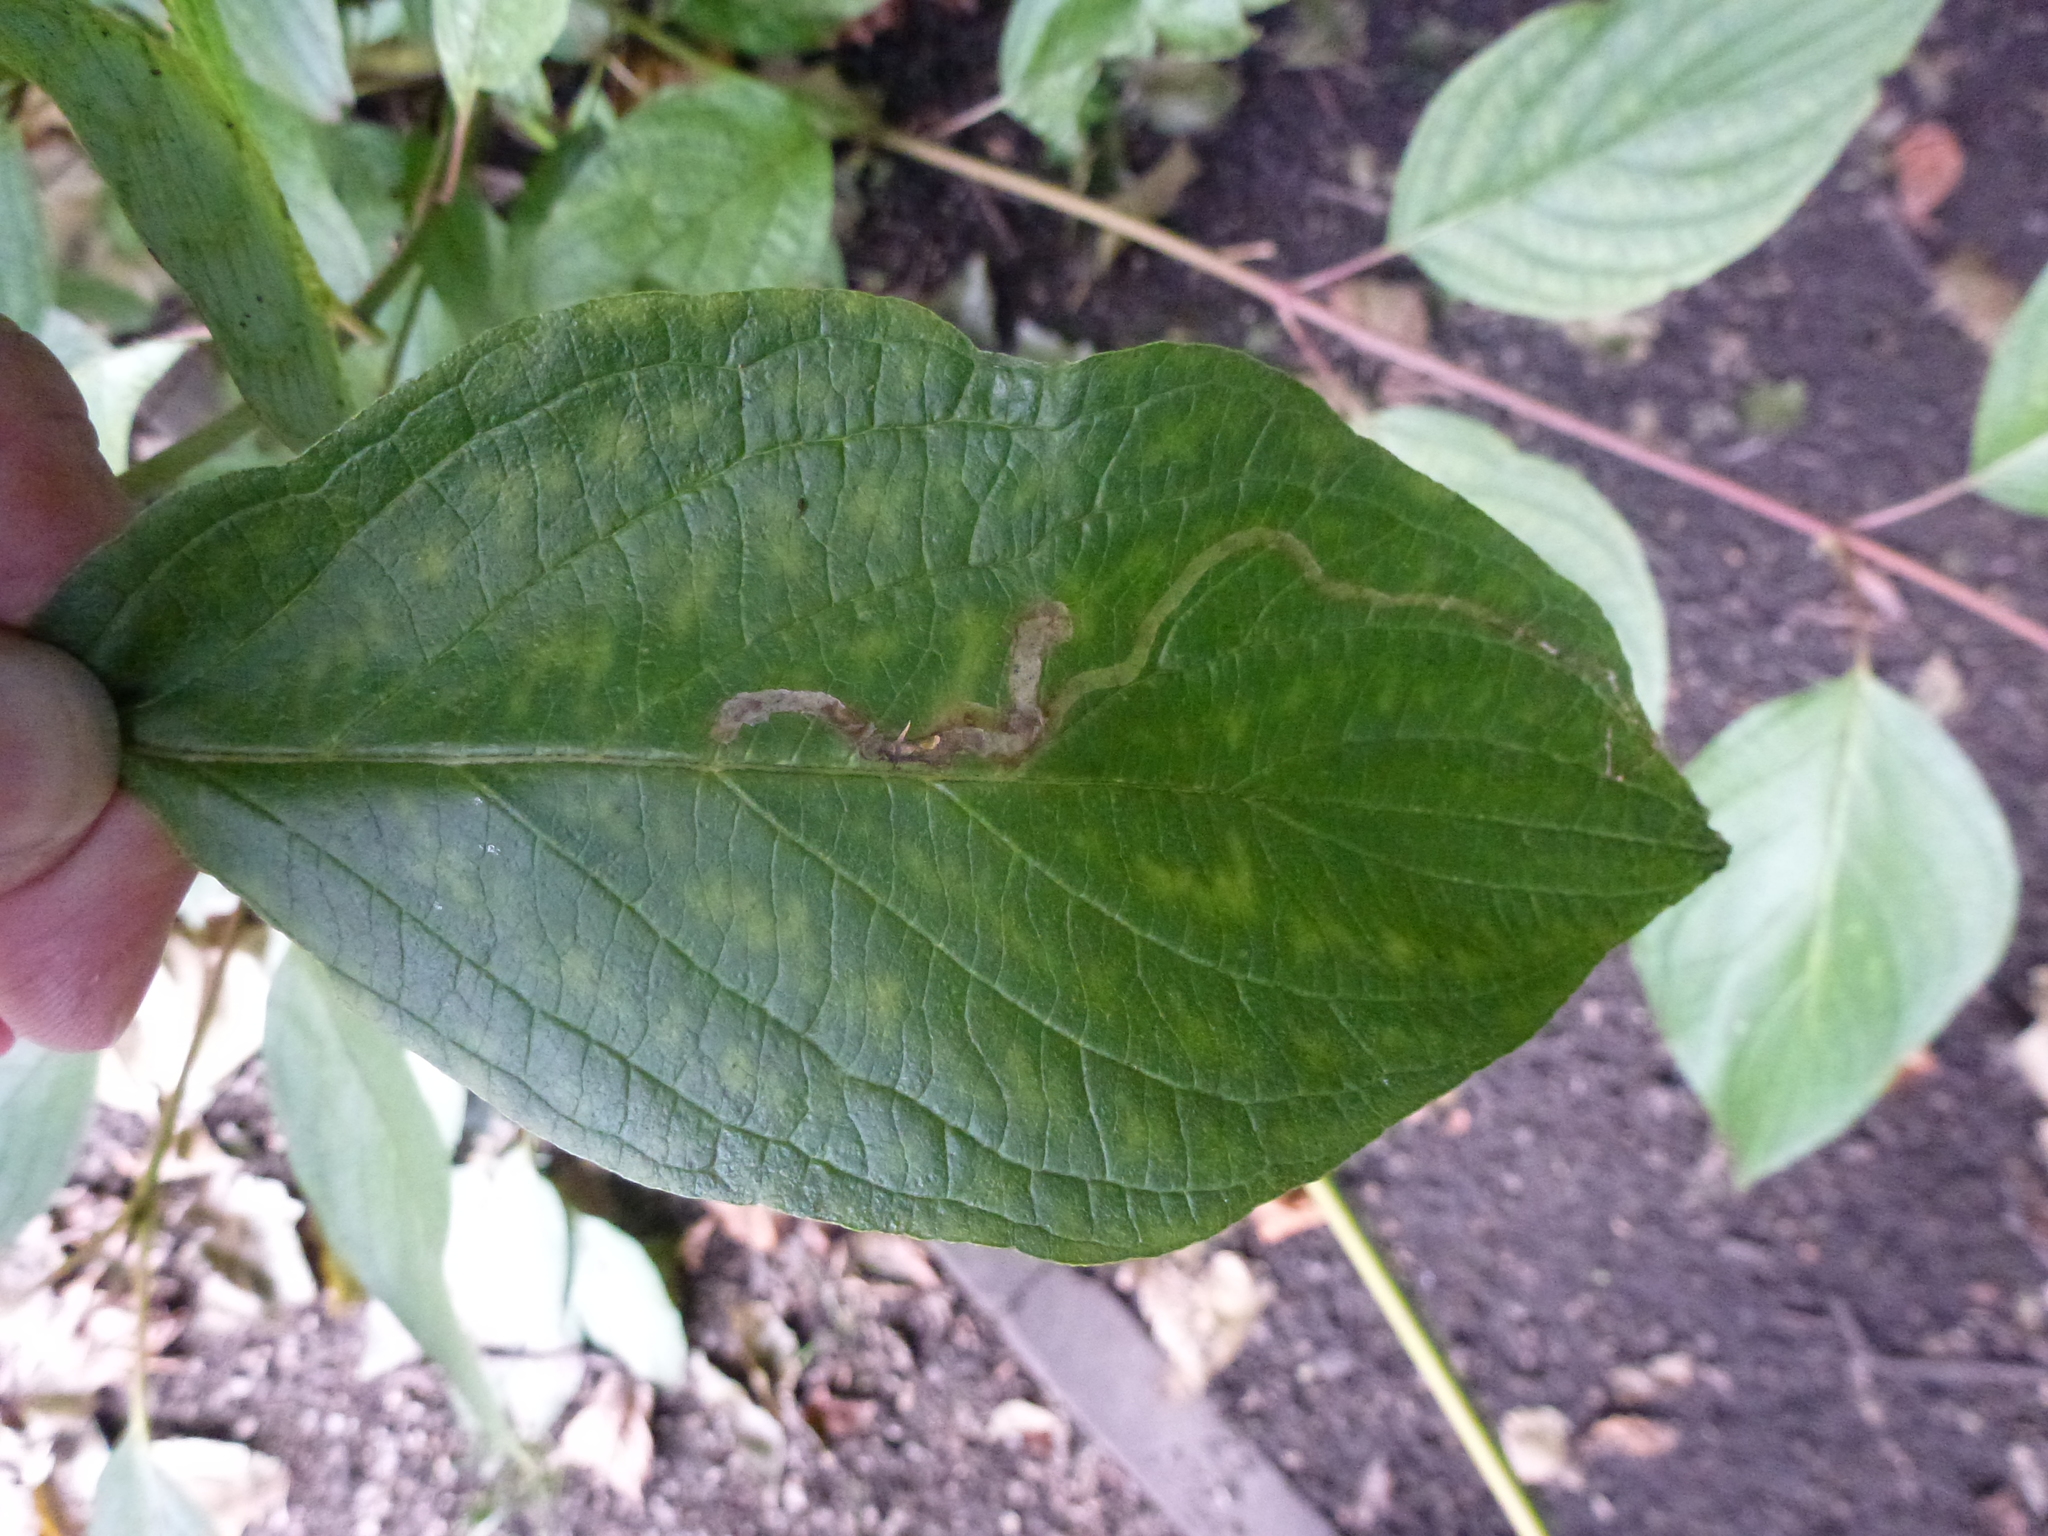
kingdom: Animalia
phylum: Arthropoda
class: Insecta
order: Diptera
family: Agromyzidae
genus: Phytomyza
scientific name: Phytomyza agromyzina
